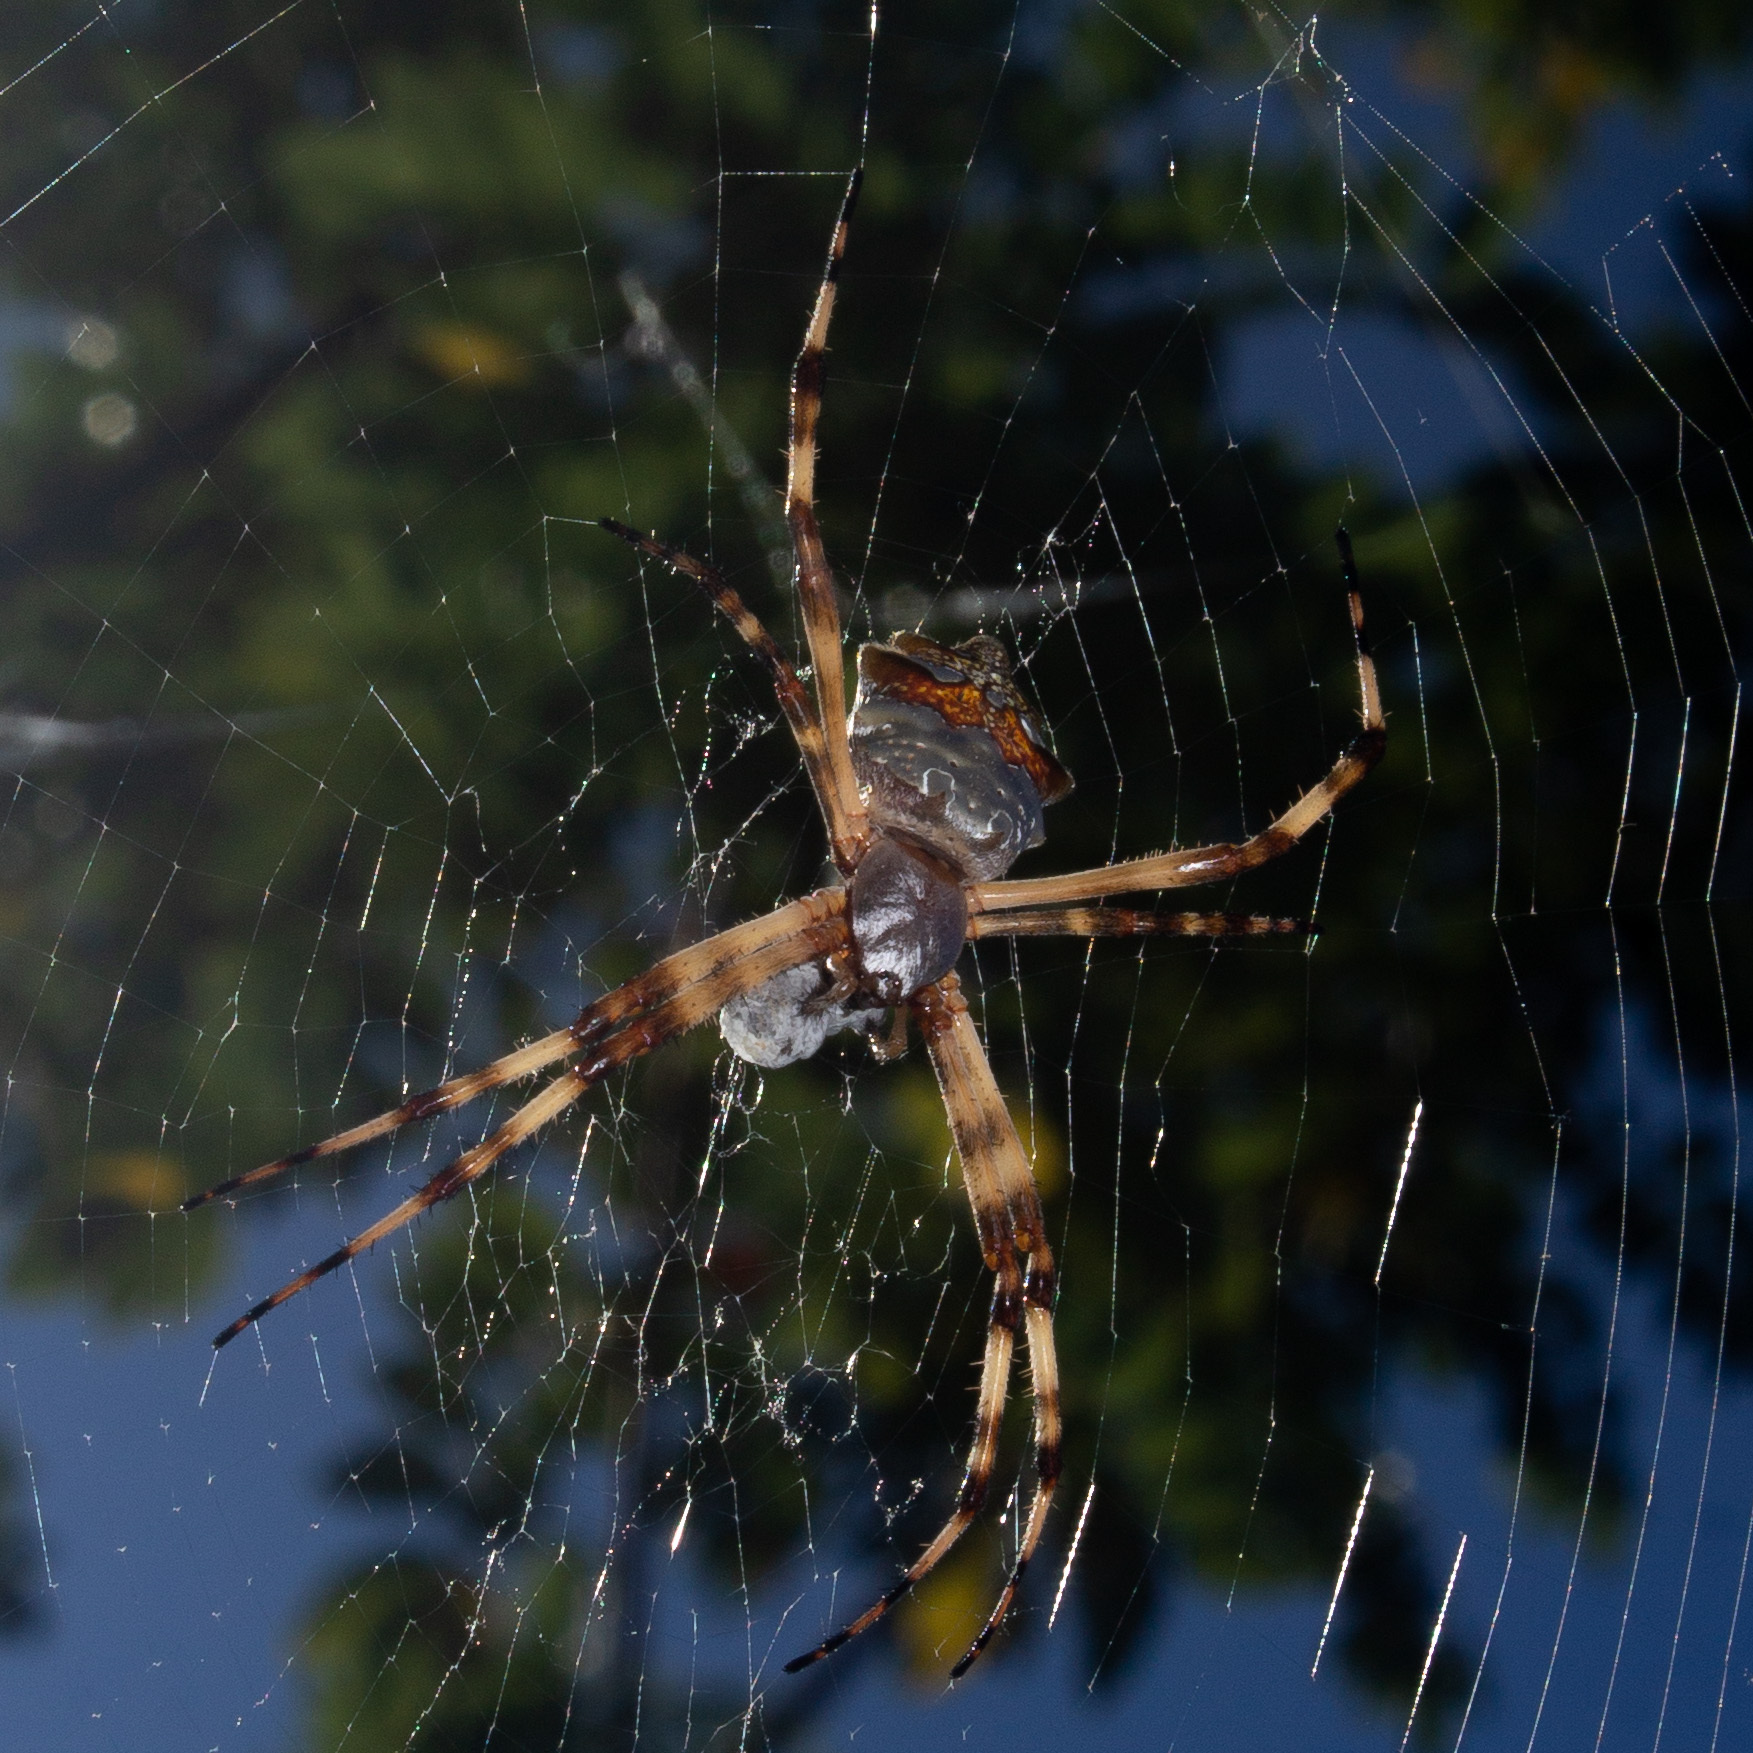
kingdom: Animalia
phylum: Arthropoda
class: Arachnida
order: Araneae
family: Araneidae
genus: Argiope
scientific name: Argiope argentata
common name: Orb weavers
